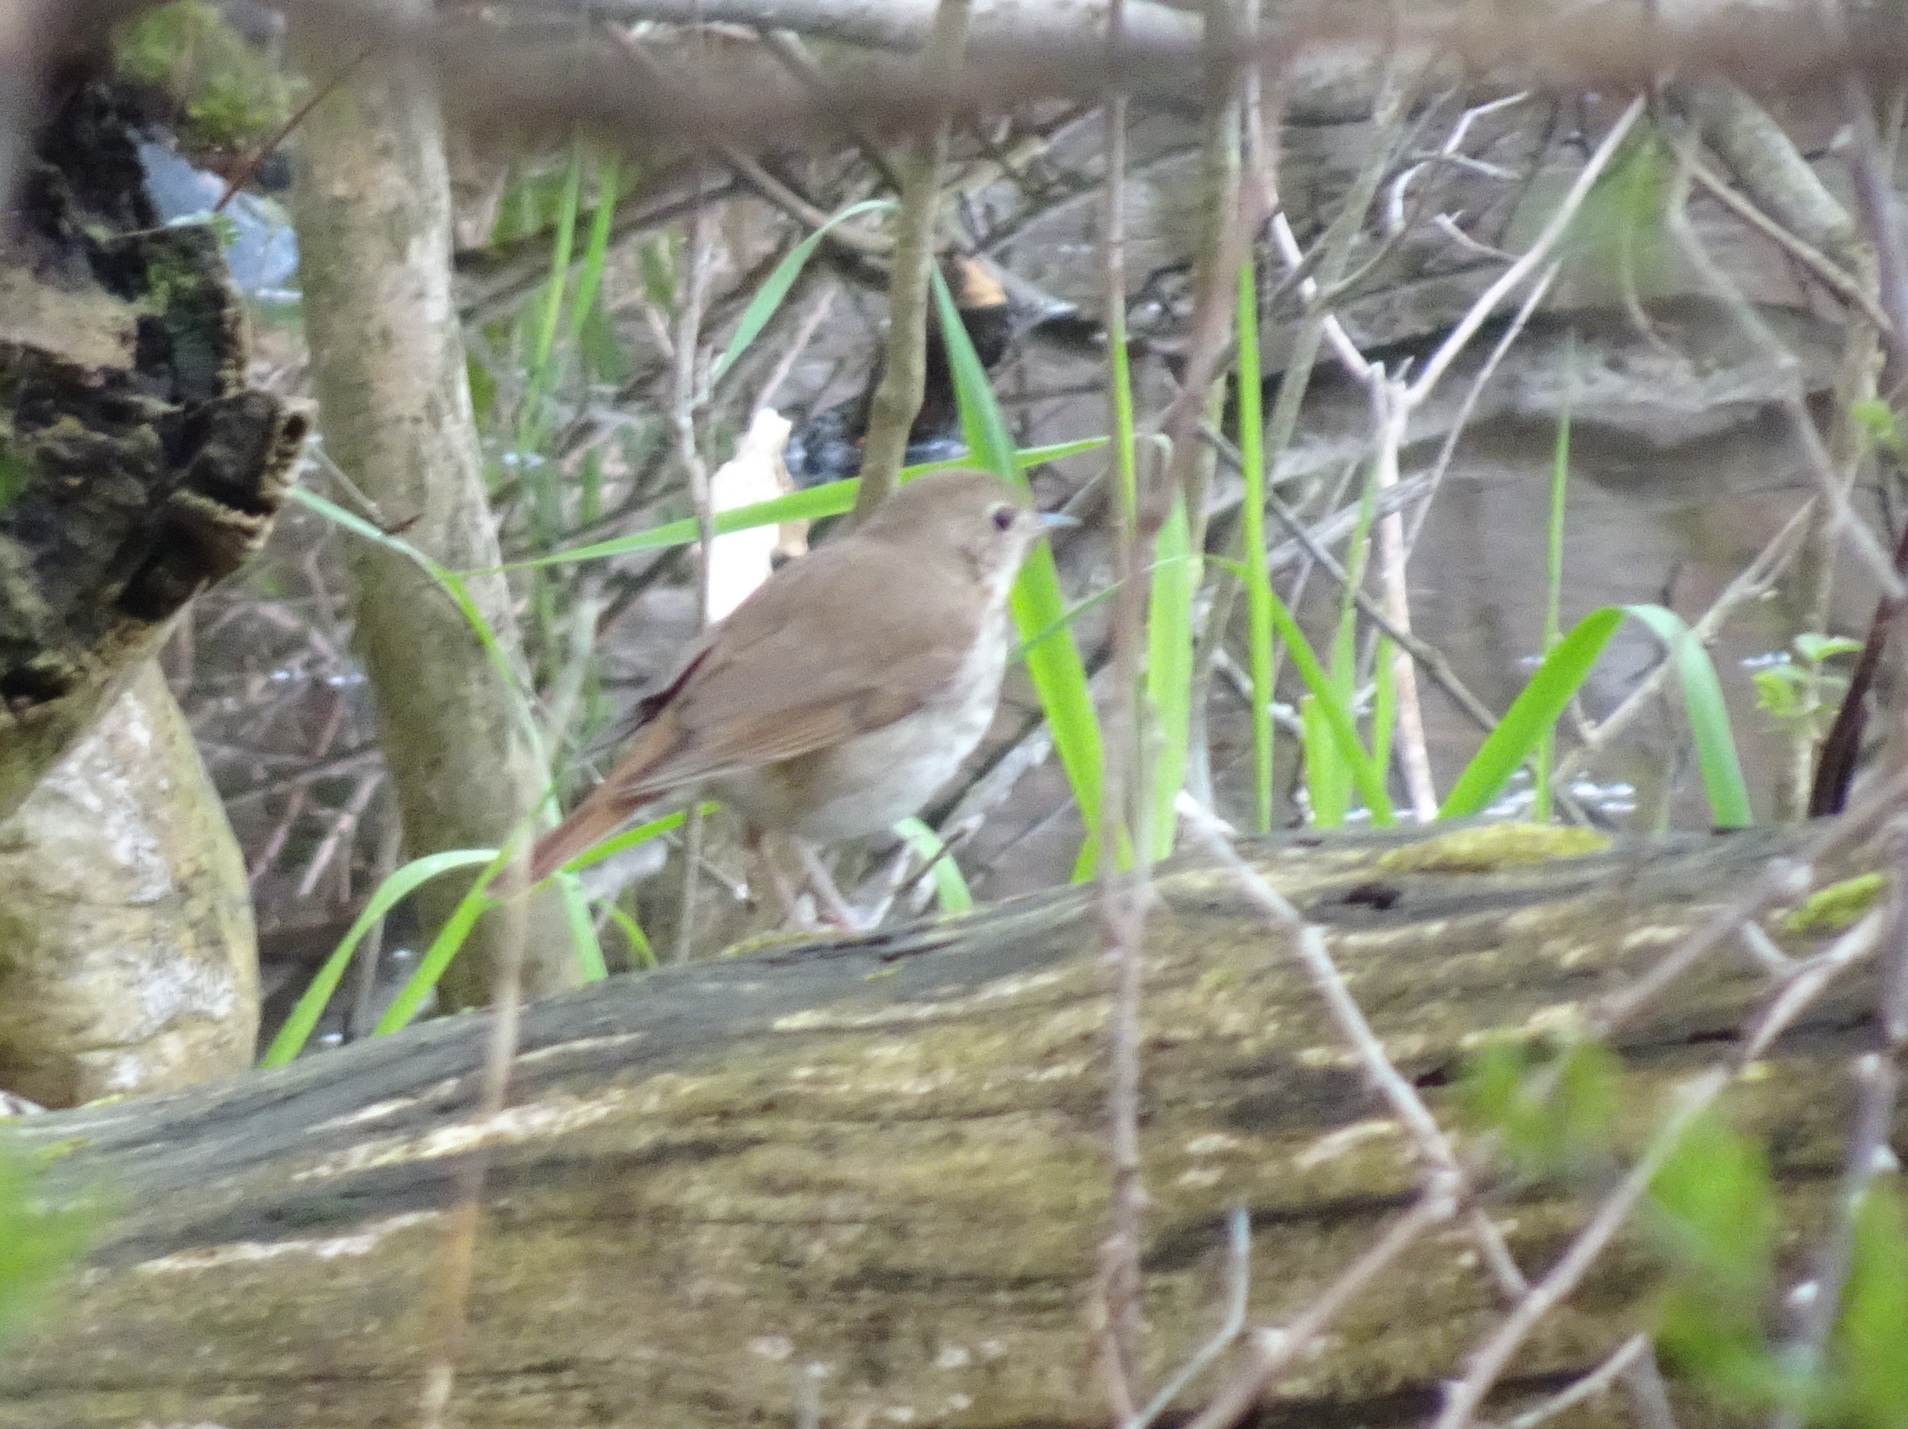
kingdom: Animalia
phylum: Chordata
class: Aves
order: Passeriformes
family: Turdidae
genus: Catharus
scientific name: Catharus guttatus
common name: Hermit thrush
